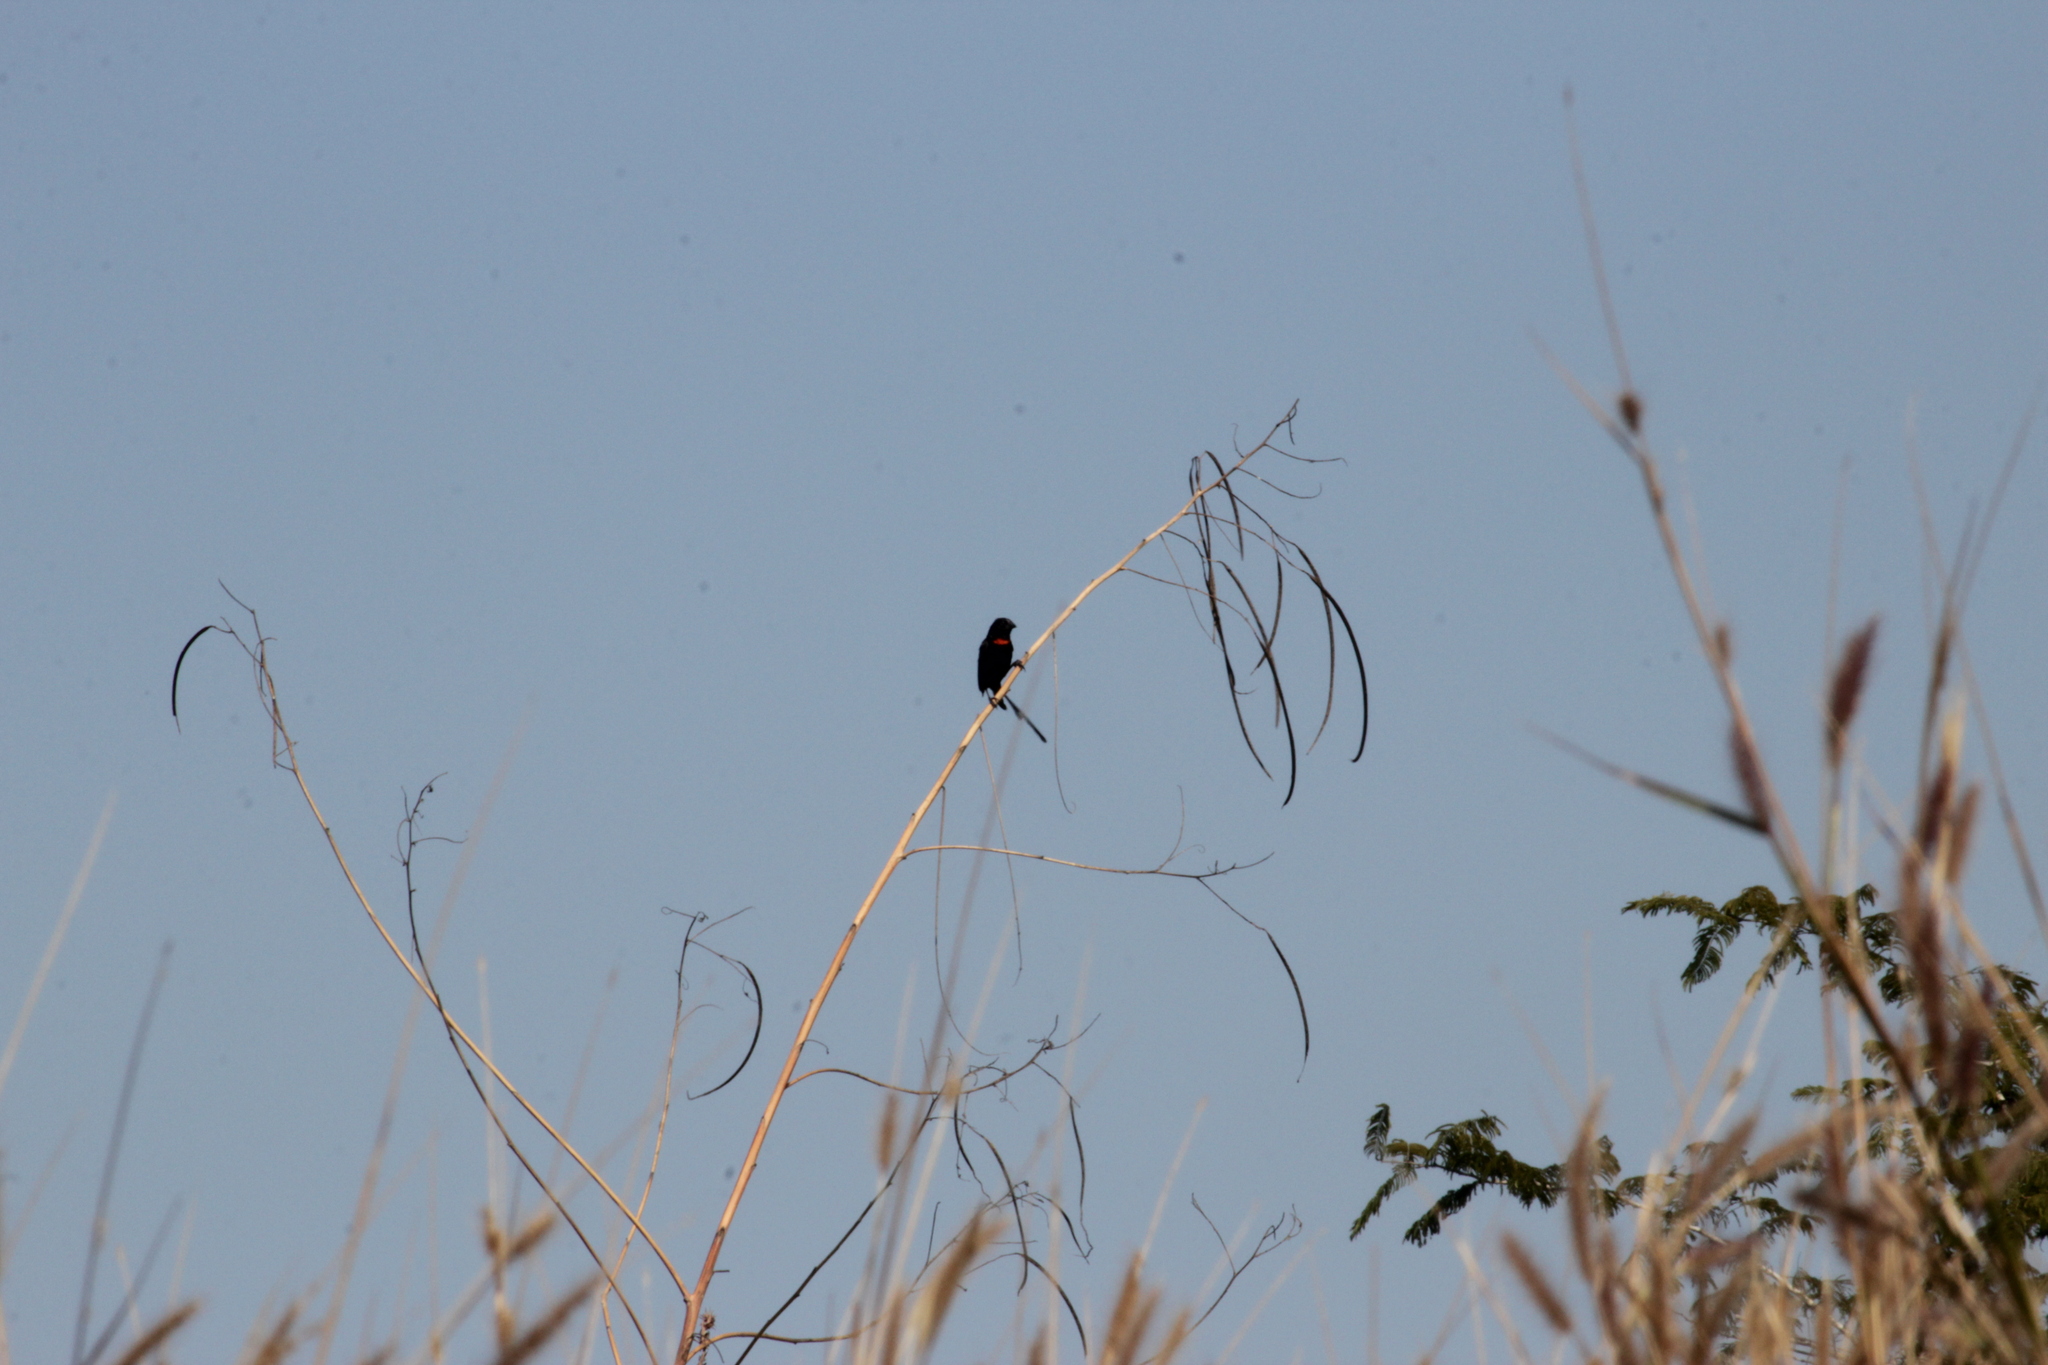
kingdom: Animalia
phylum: Chordata
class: Aves
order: Passeriformes
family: Ploceidae
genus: Euplectes
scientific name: Euplectes ardens
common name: Red-collared widowbird
